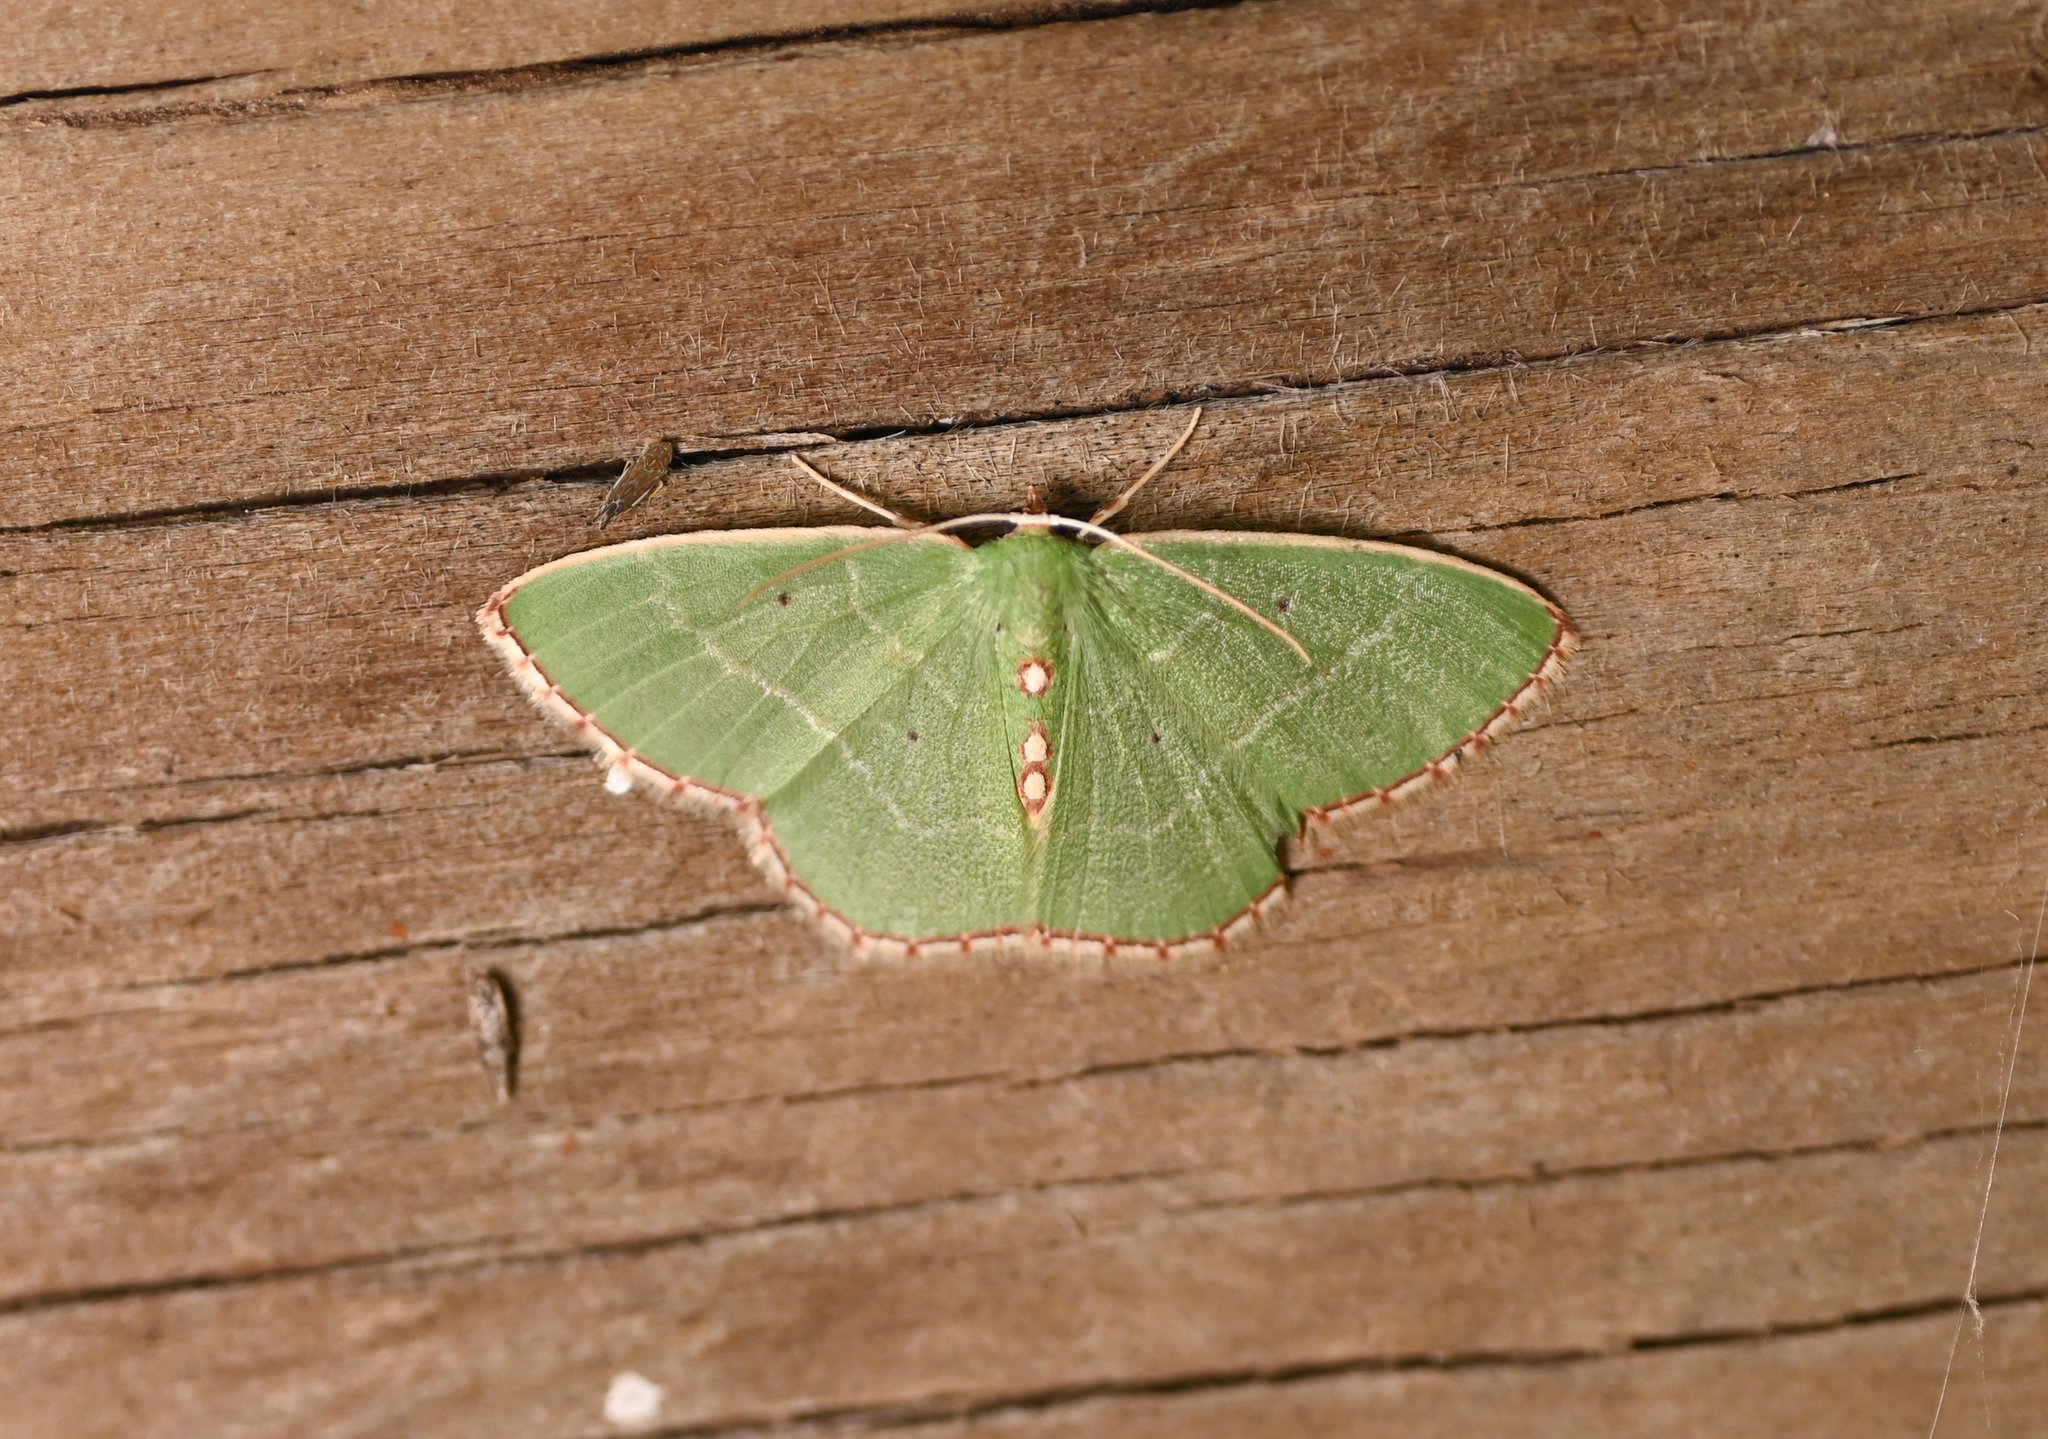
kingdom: Animalia
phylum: Arthropoda
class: Insecta
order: Lepidoptera
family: Geometridae
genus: Nemoria
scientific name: Nemoria lixaria
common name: Red-bordered emerald
